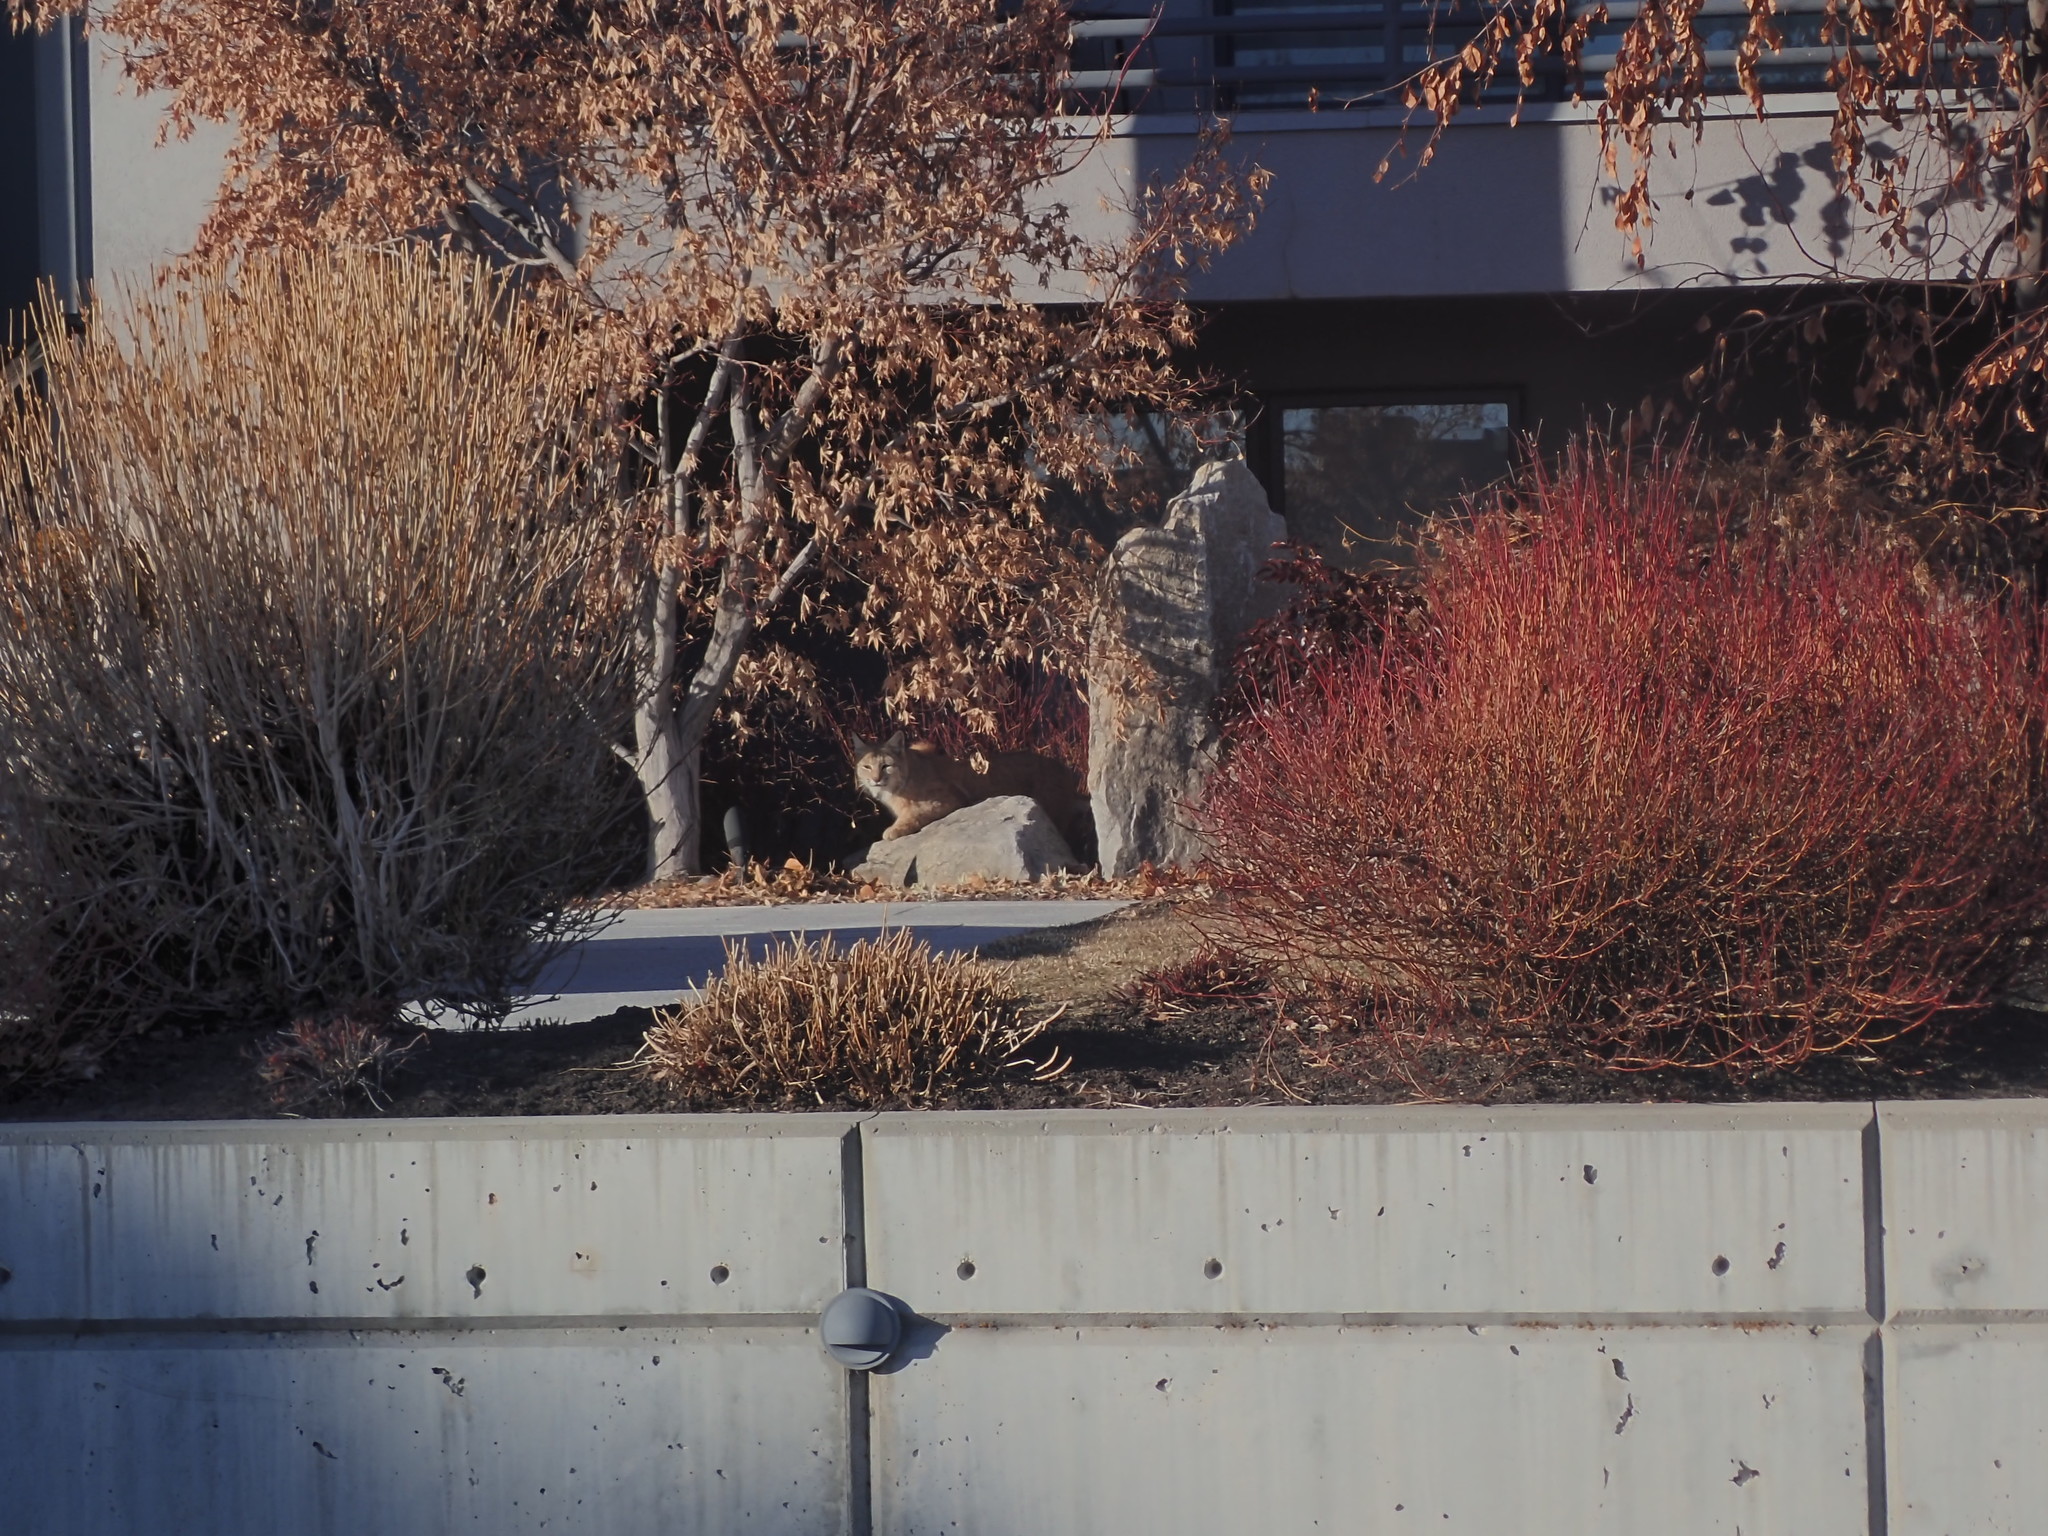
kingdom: Animalia
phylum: Chordata
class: Mammalia
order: Carnivora
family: Felidae
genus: Lynx
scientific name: Lynx rufus
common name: Bobcat
